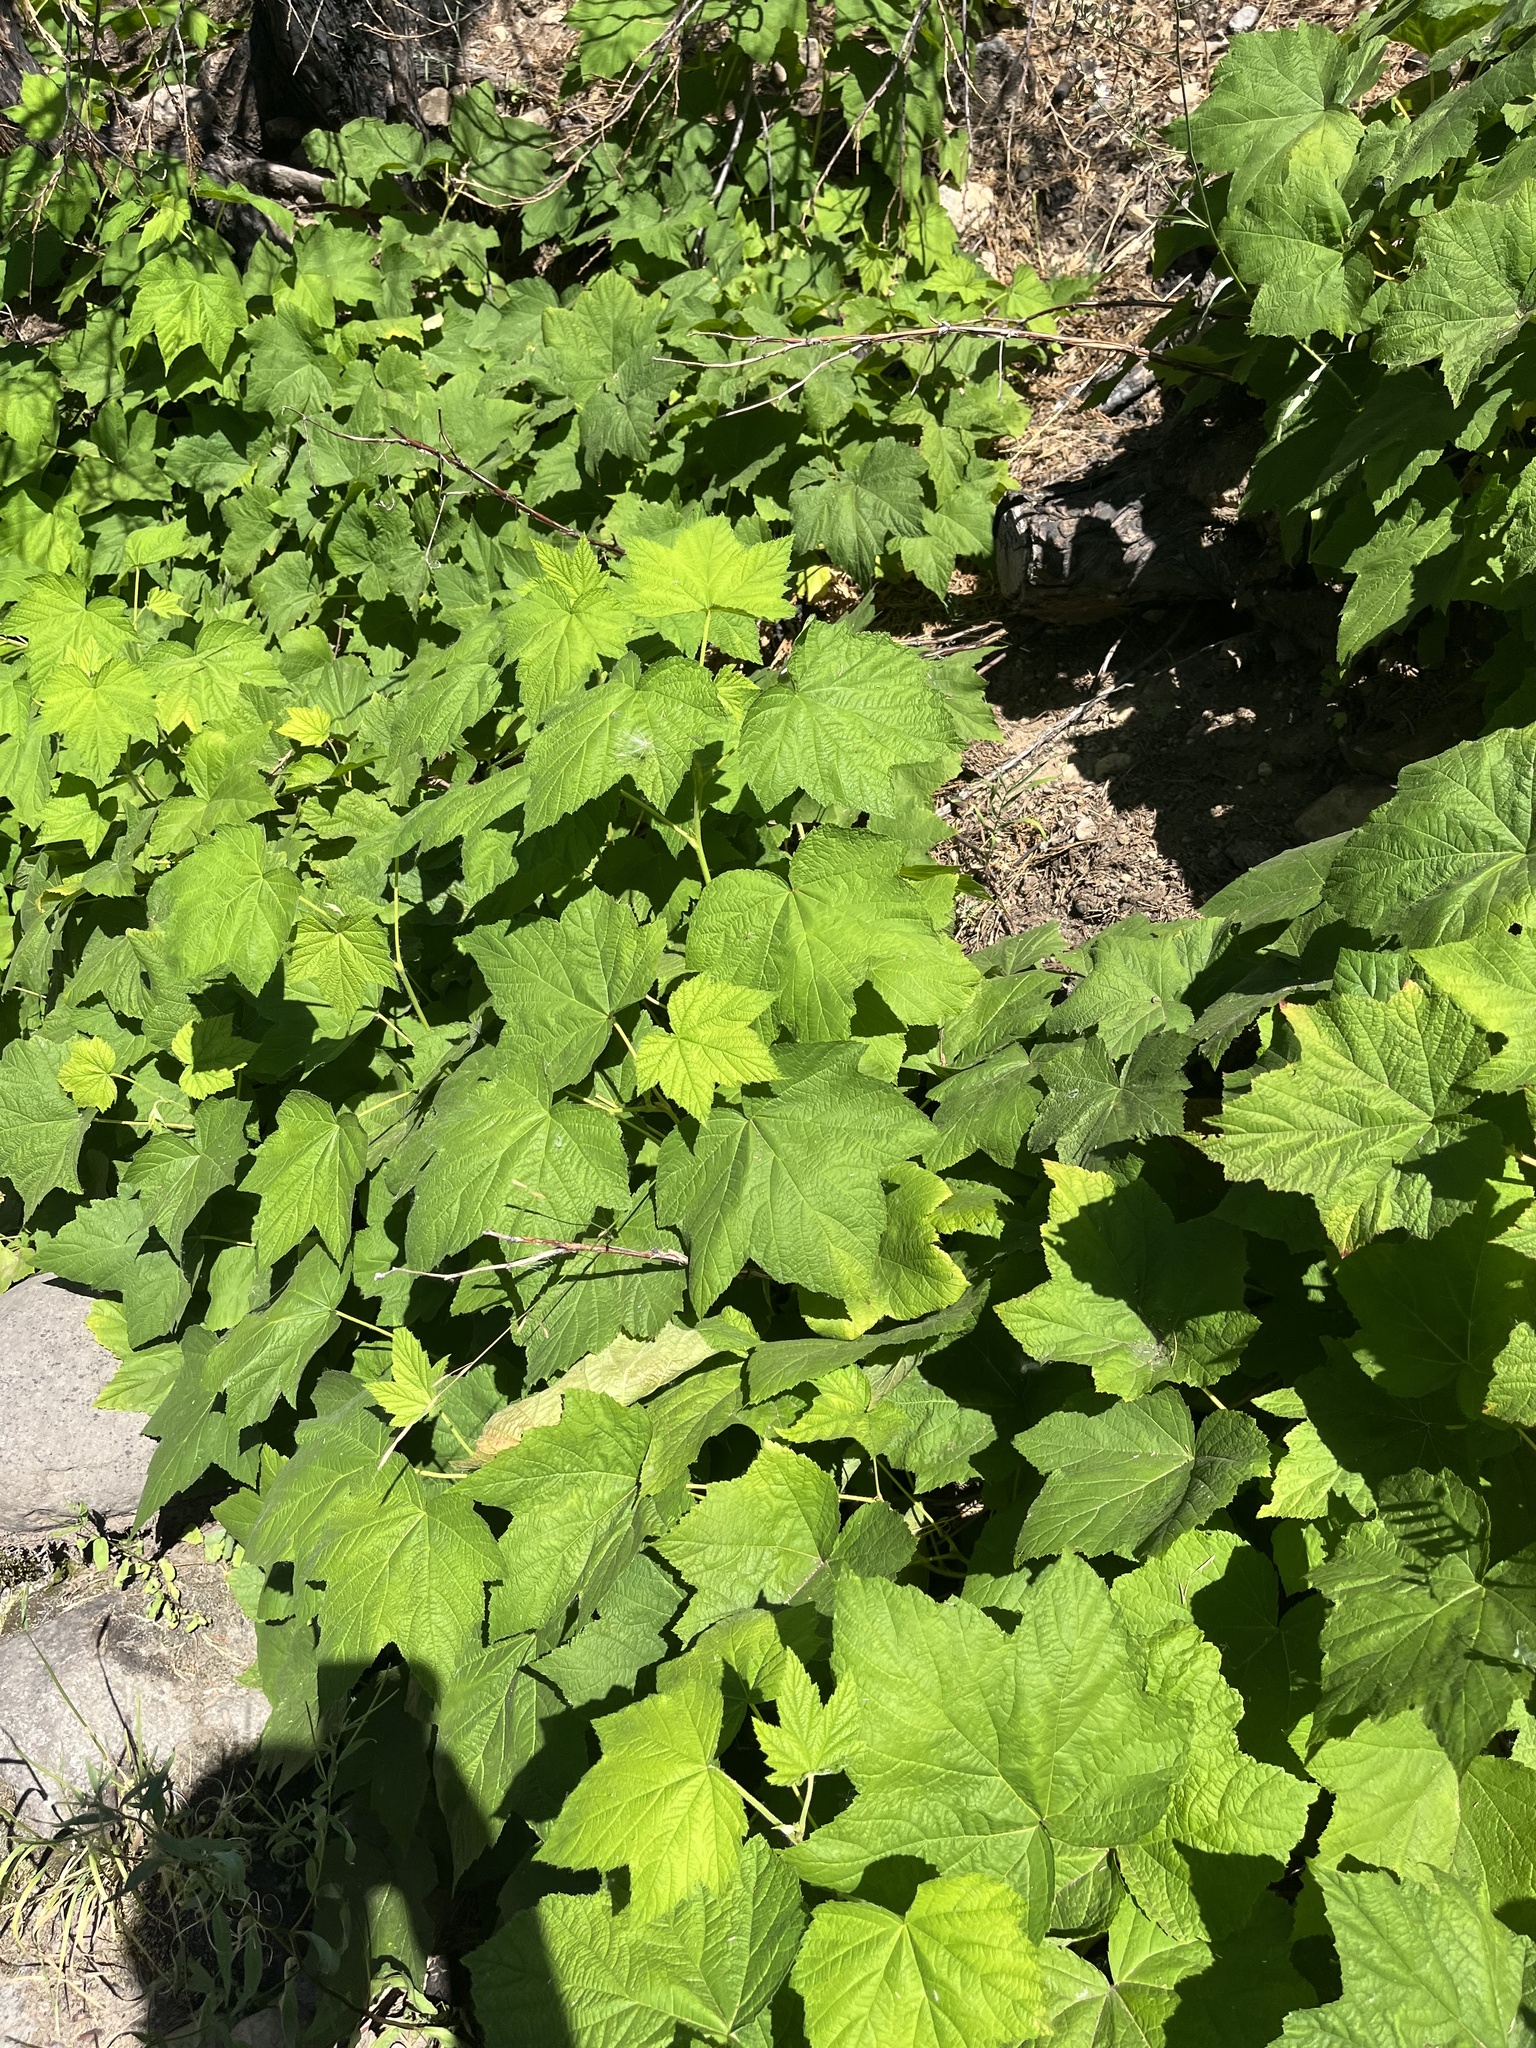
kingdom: Plantae
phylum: Tracheophyta
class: Magnoliopsida
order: Rosales
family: Rosaceae
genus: Rubus
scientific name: Rubus parviflorus
